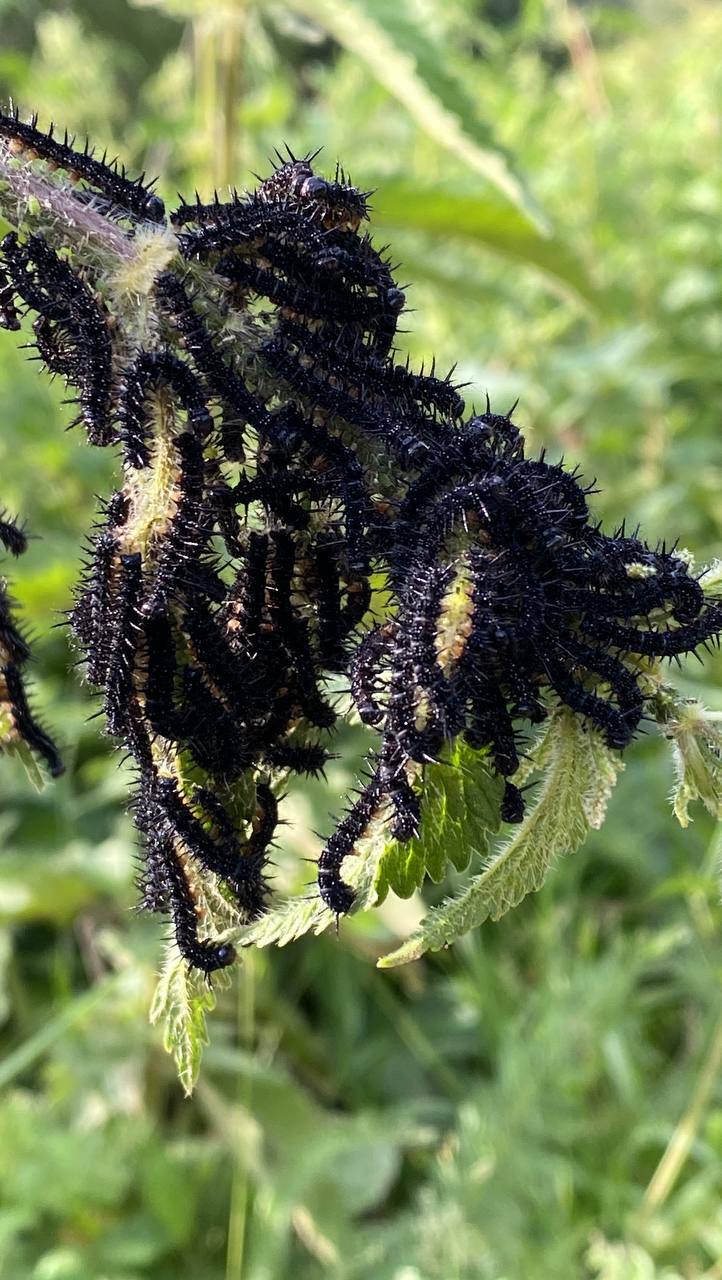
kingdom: Animalia
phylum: Arthropoda
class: Insecta
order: Lepidoptera
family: Nymphalidae
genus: Aglais
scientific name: Aglais io
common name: Peacock
